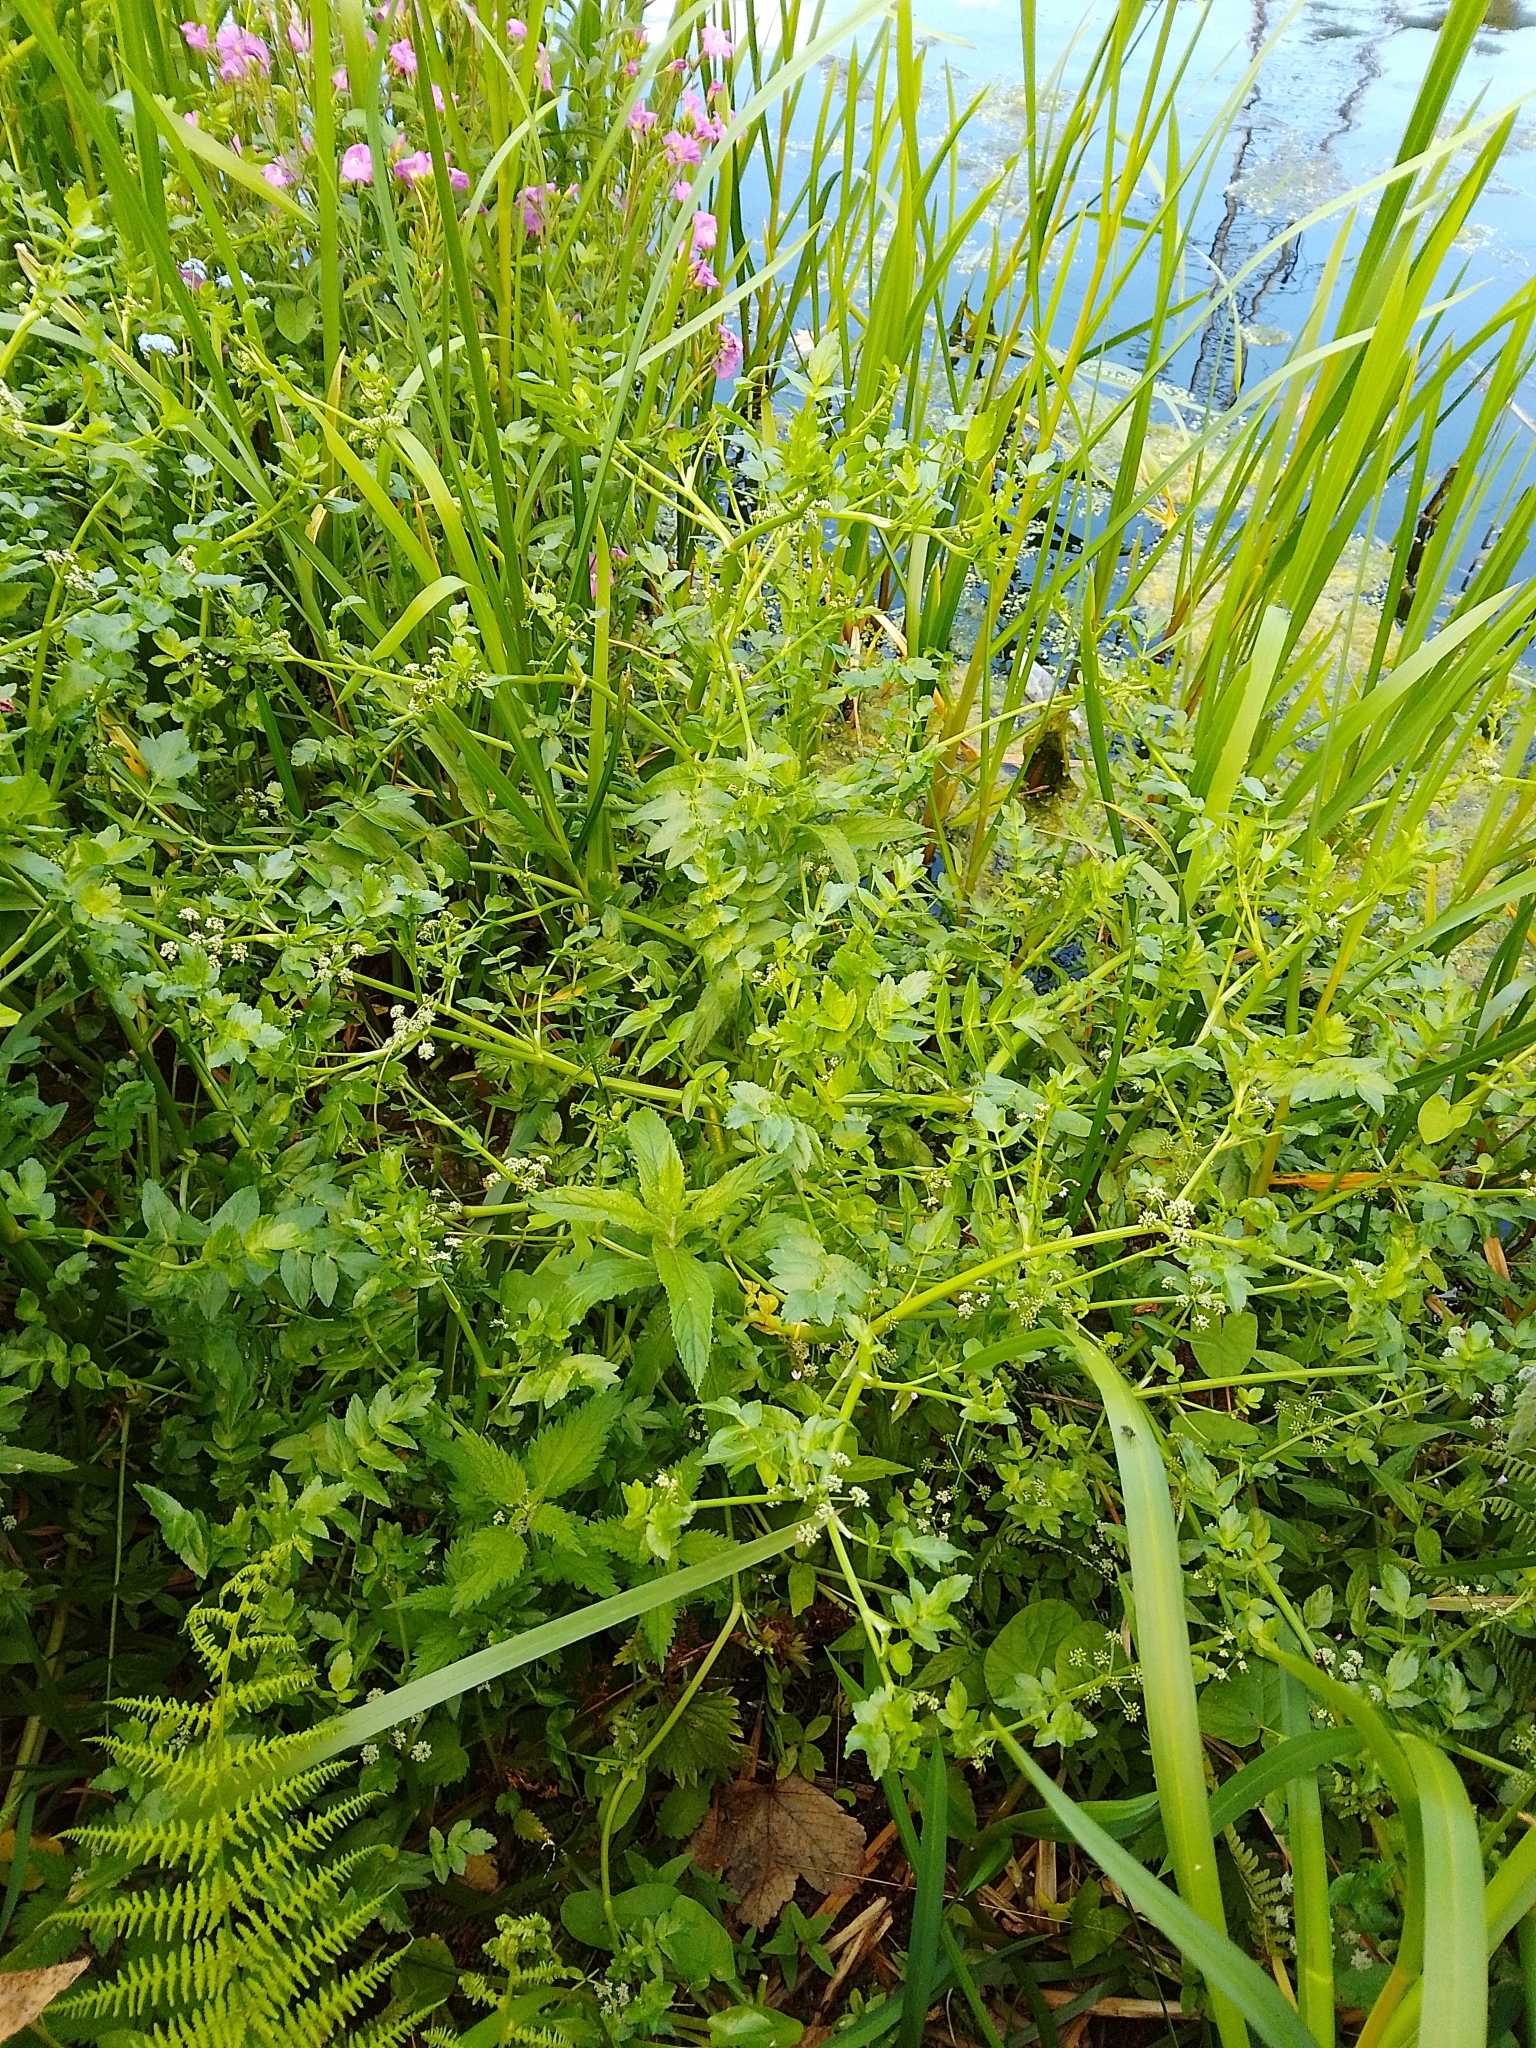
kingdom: Plantae
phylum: Tracheophyta
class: Magnoliopsida
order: Apiales
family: Apiaceae
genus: Helosciadium
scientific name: Helosciadium nodiflorum
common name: Fool's-watercress
